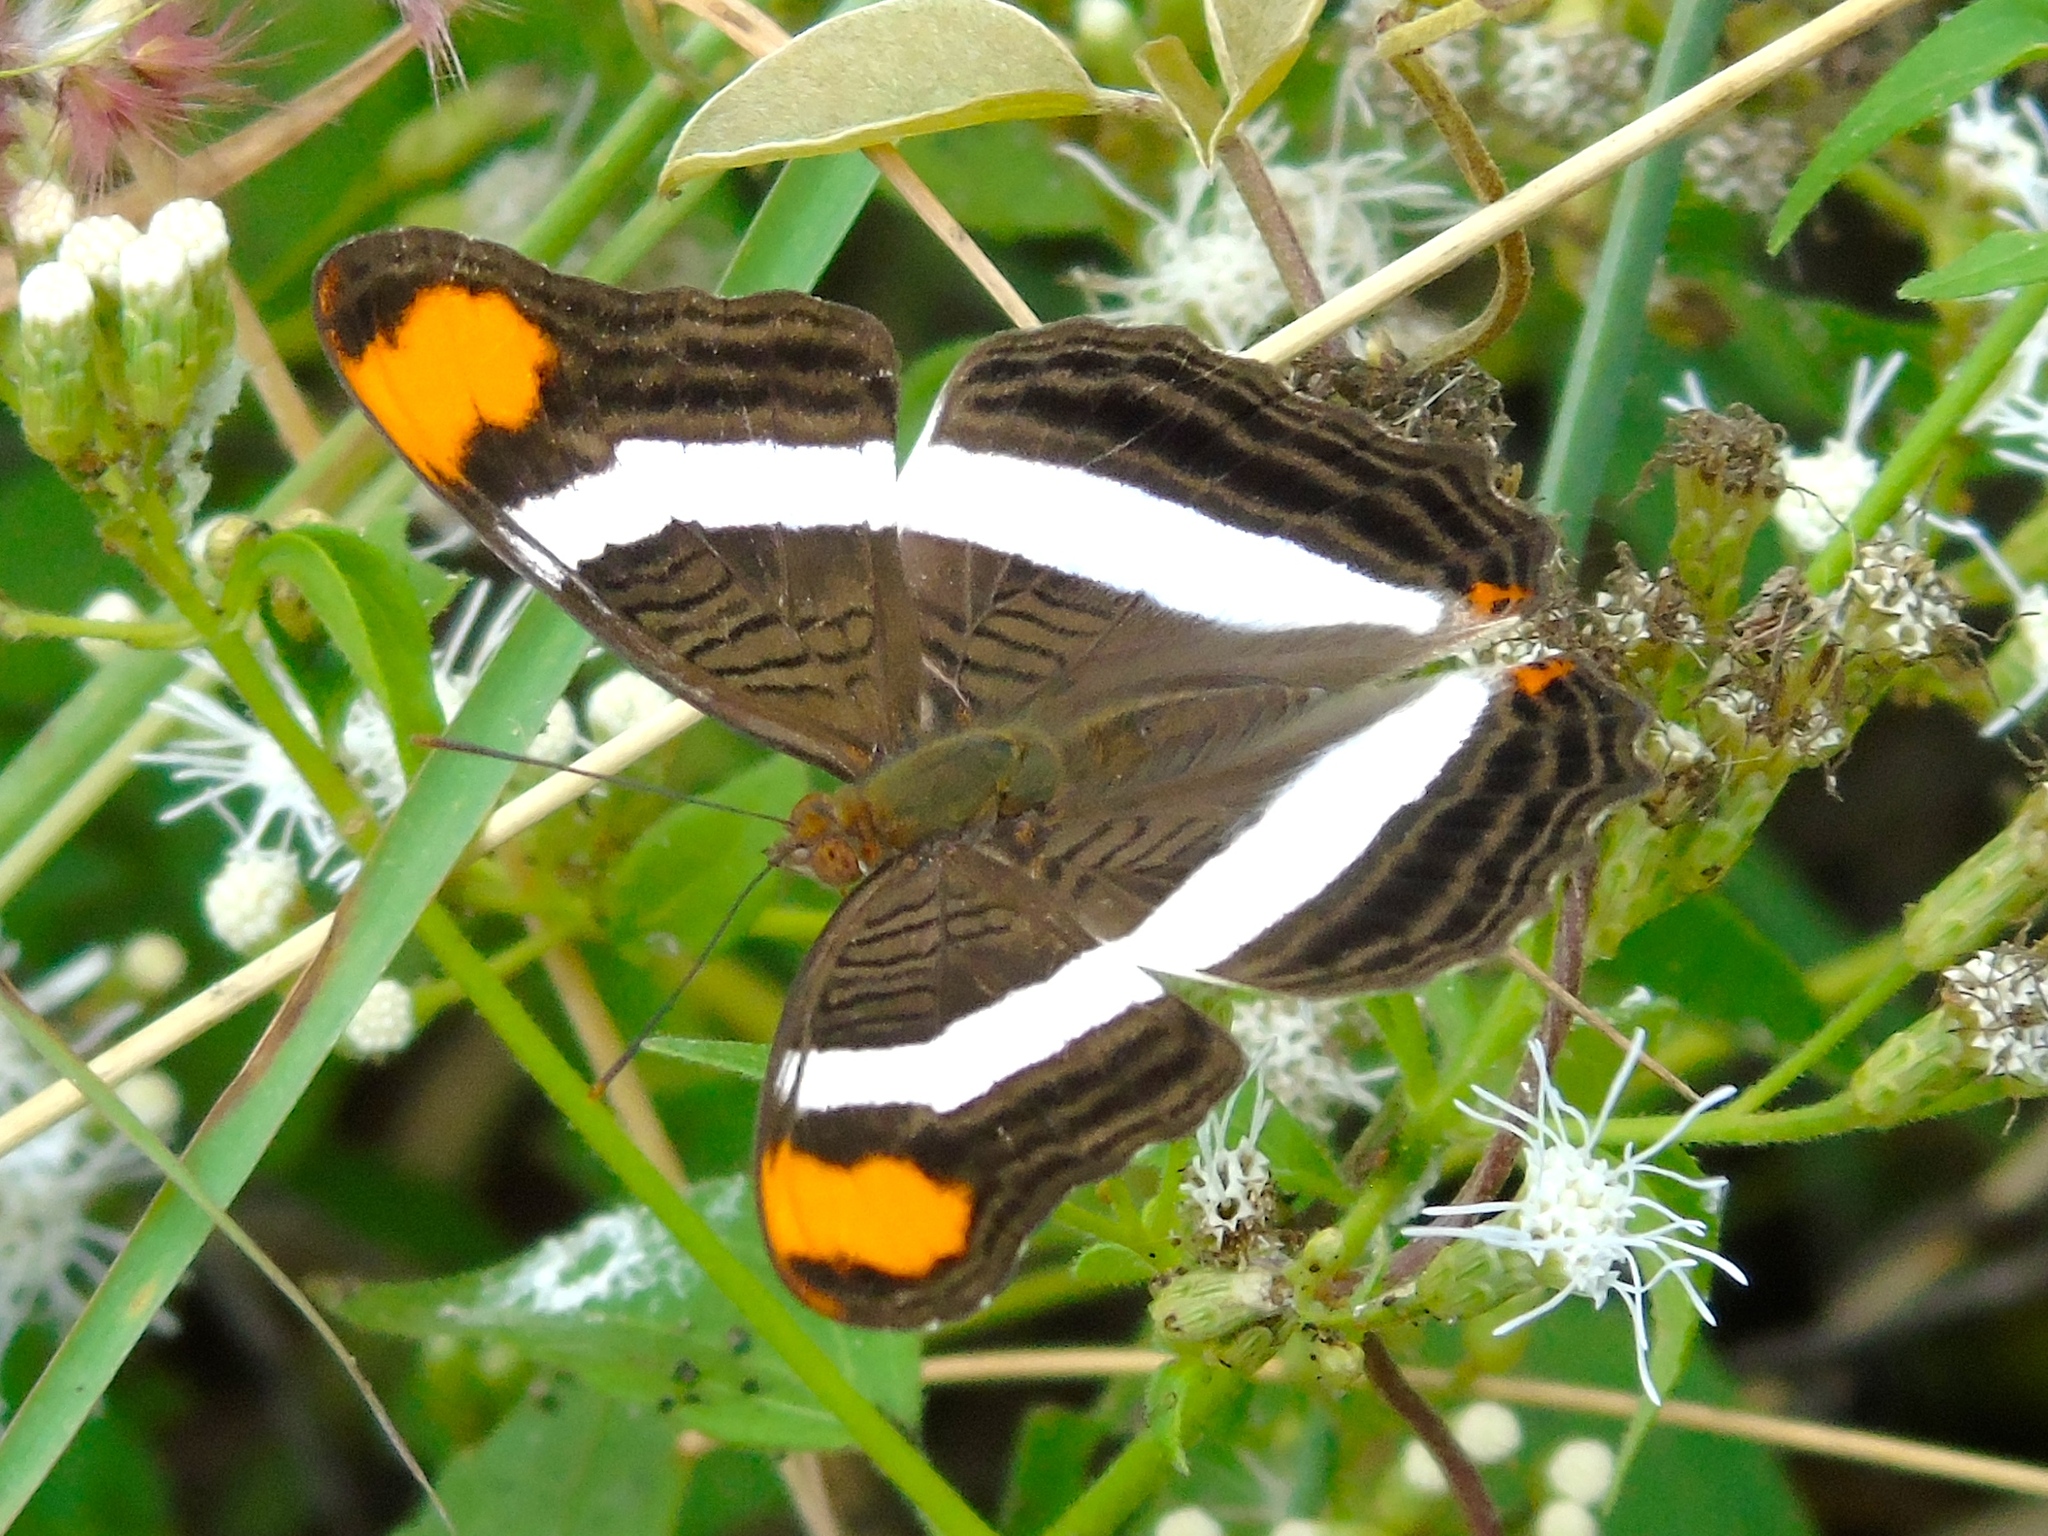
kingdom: Animalia
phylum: Arthropoda
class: Insecta
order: Lepidoptera
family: Nymphalidae
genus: Limenitis
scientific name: Limenitis fessonia
